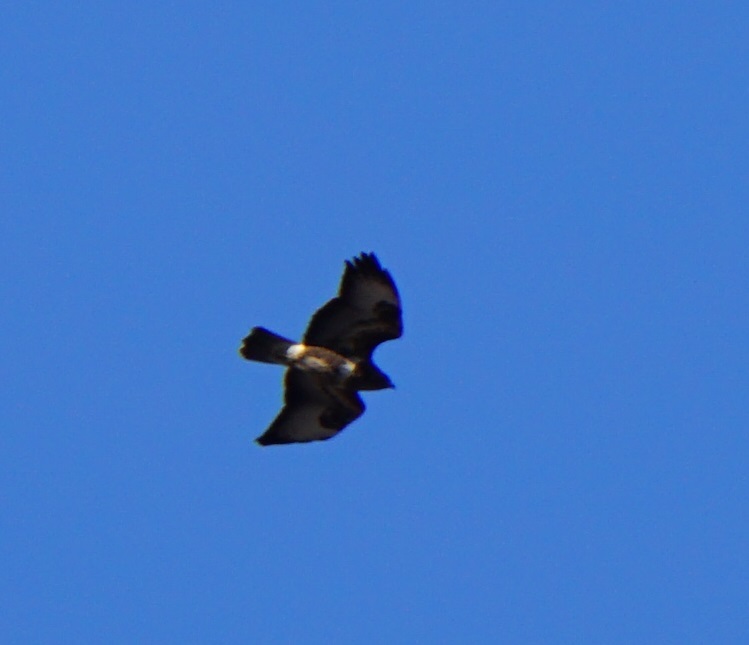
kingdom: Animalia
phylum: Chordata
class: Aves
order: Accipitriformes
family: Accipitridae
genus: Buteo
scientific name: Buteo buteo
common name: Common buzzard
